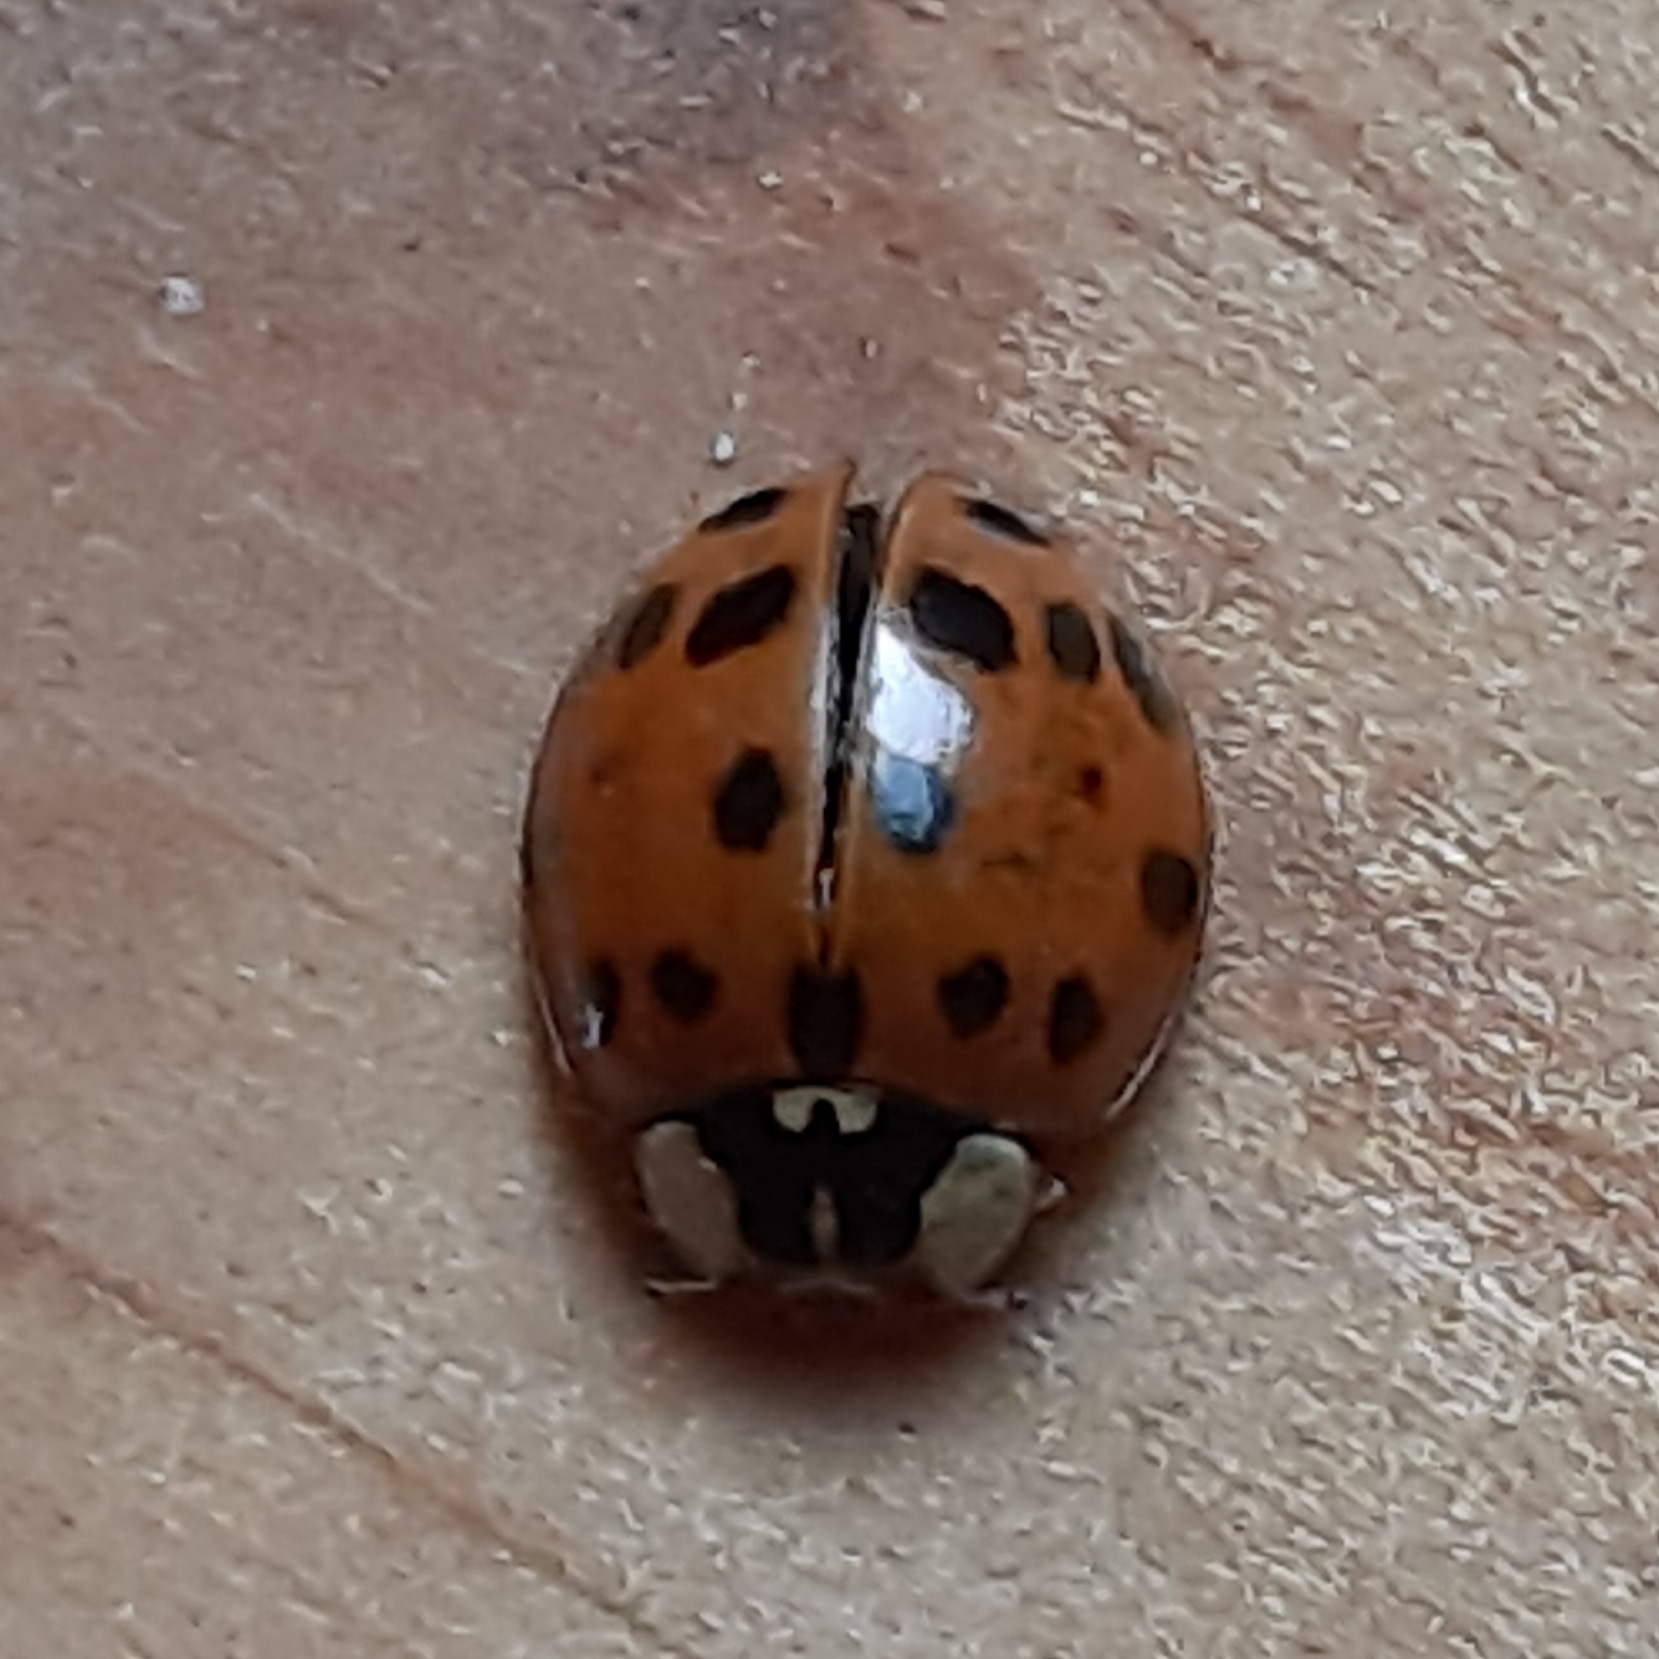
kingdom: Animalia
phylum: Arthropoda
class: Insecta
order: Coleoptera
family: Coccinellidae
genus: Harmonia
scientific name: Harmonia axyridis
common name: Harlequin ladybird
